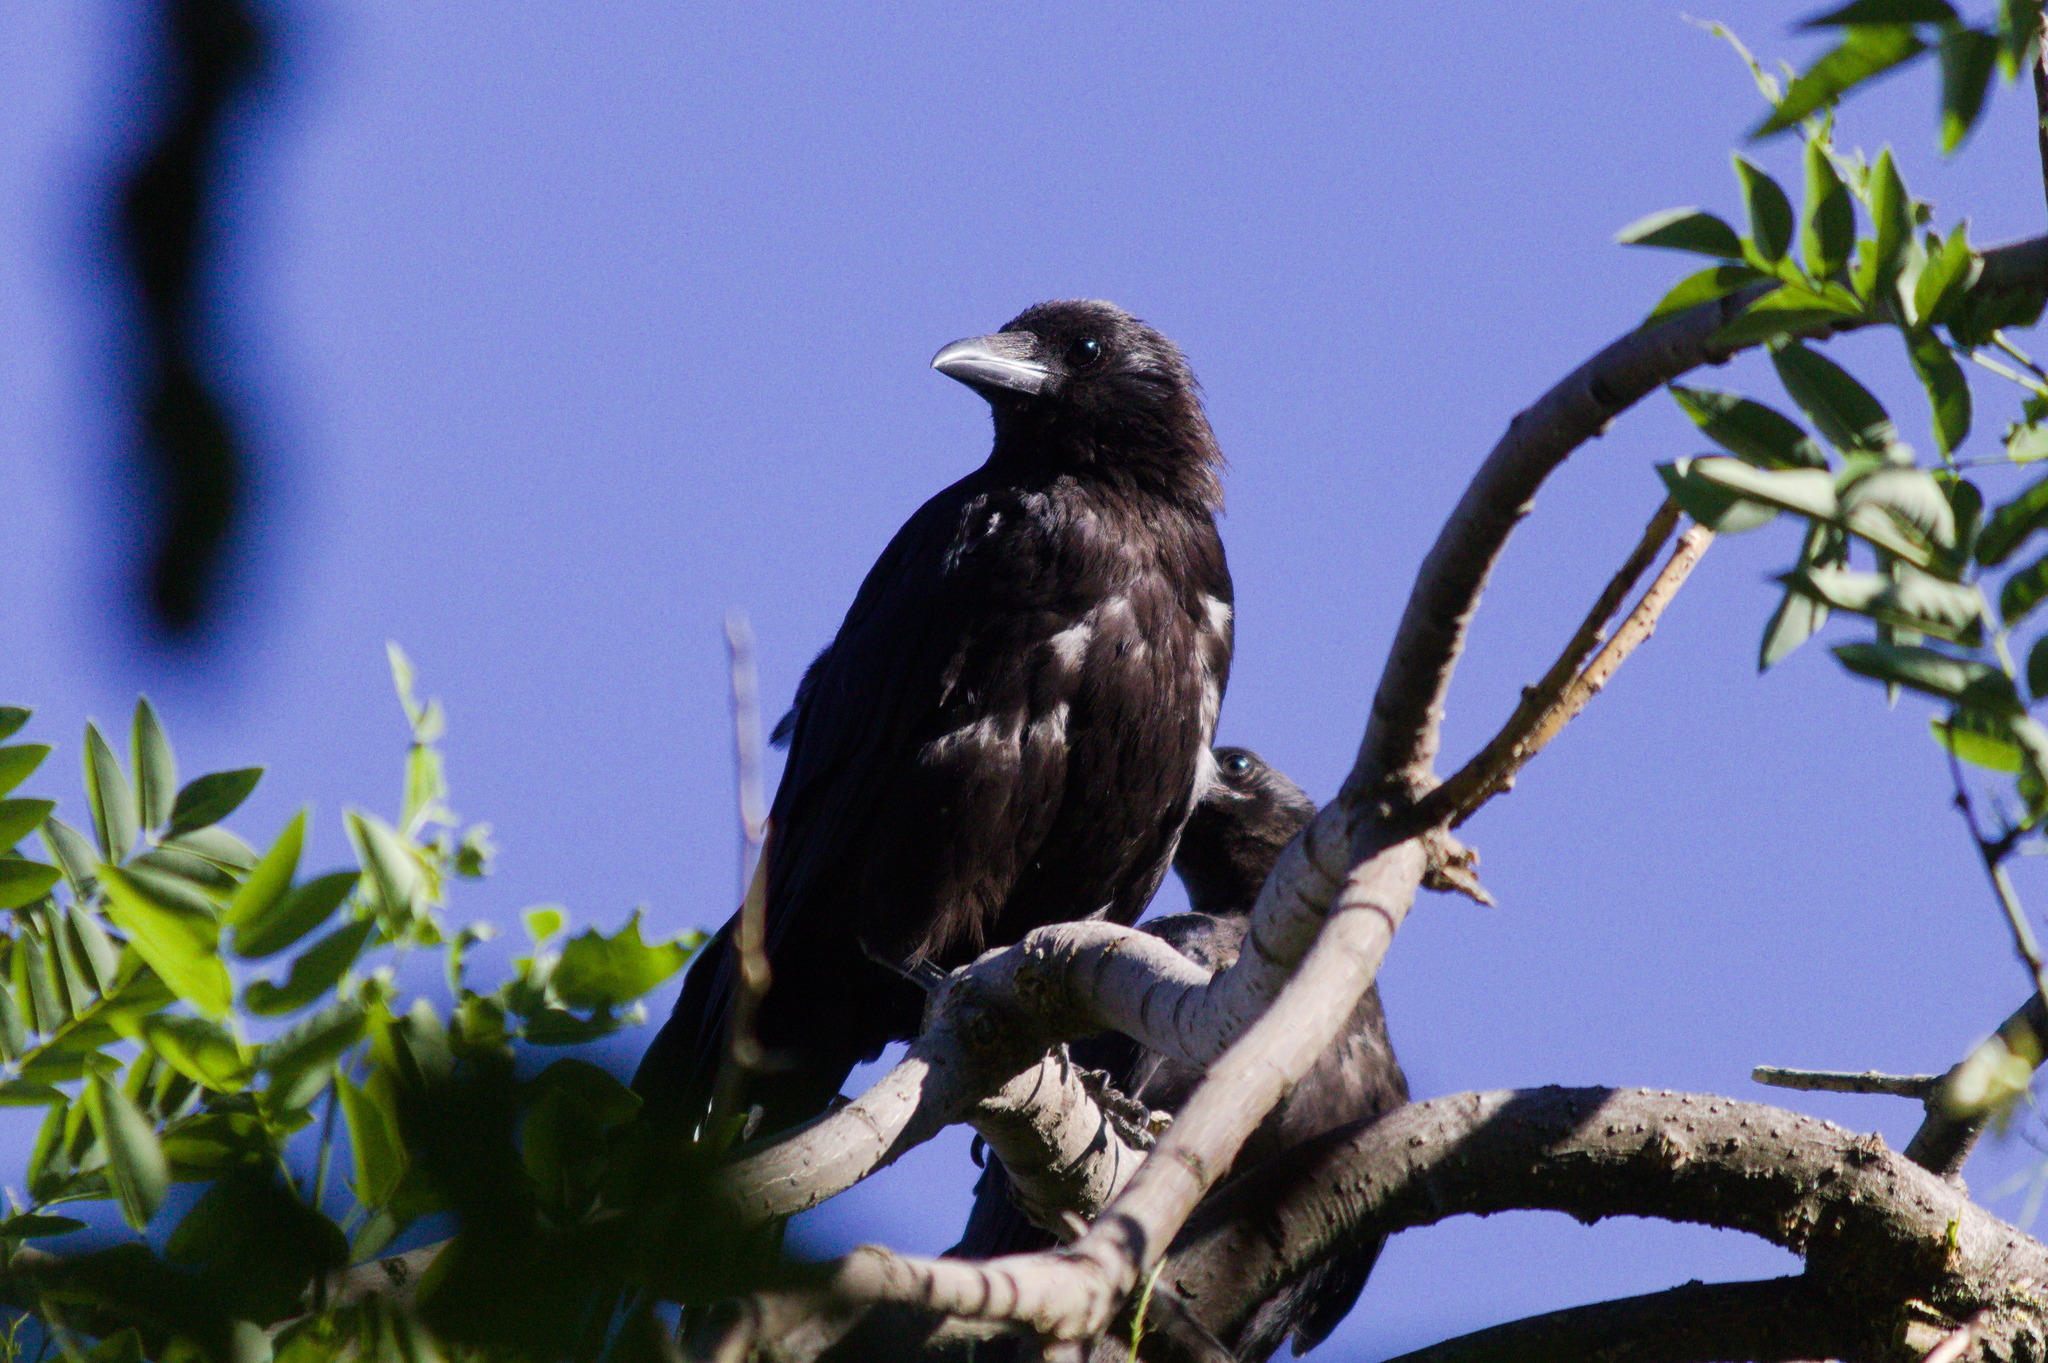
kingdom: Animalia
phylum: Chordata
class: Aves
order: Passeriformes
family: Corvidae
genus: Corvus
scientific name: Corvus corone
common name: Carrion crow
